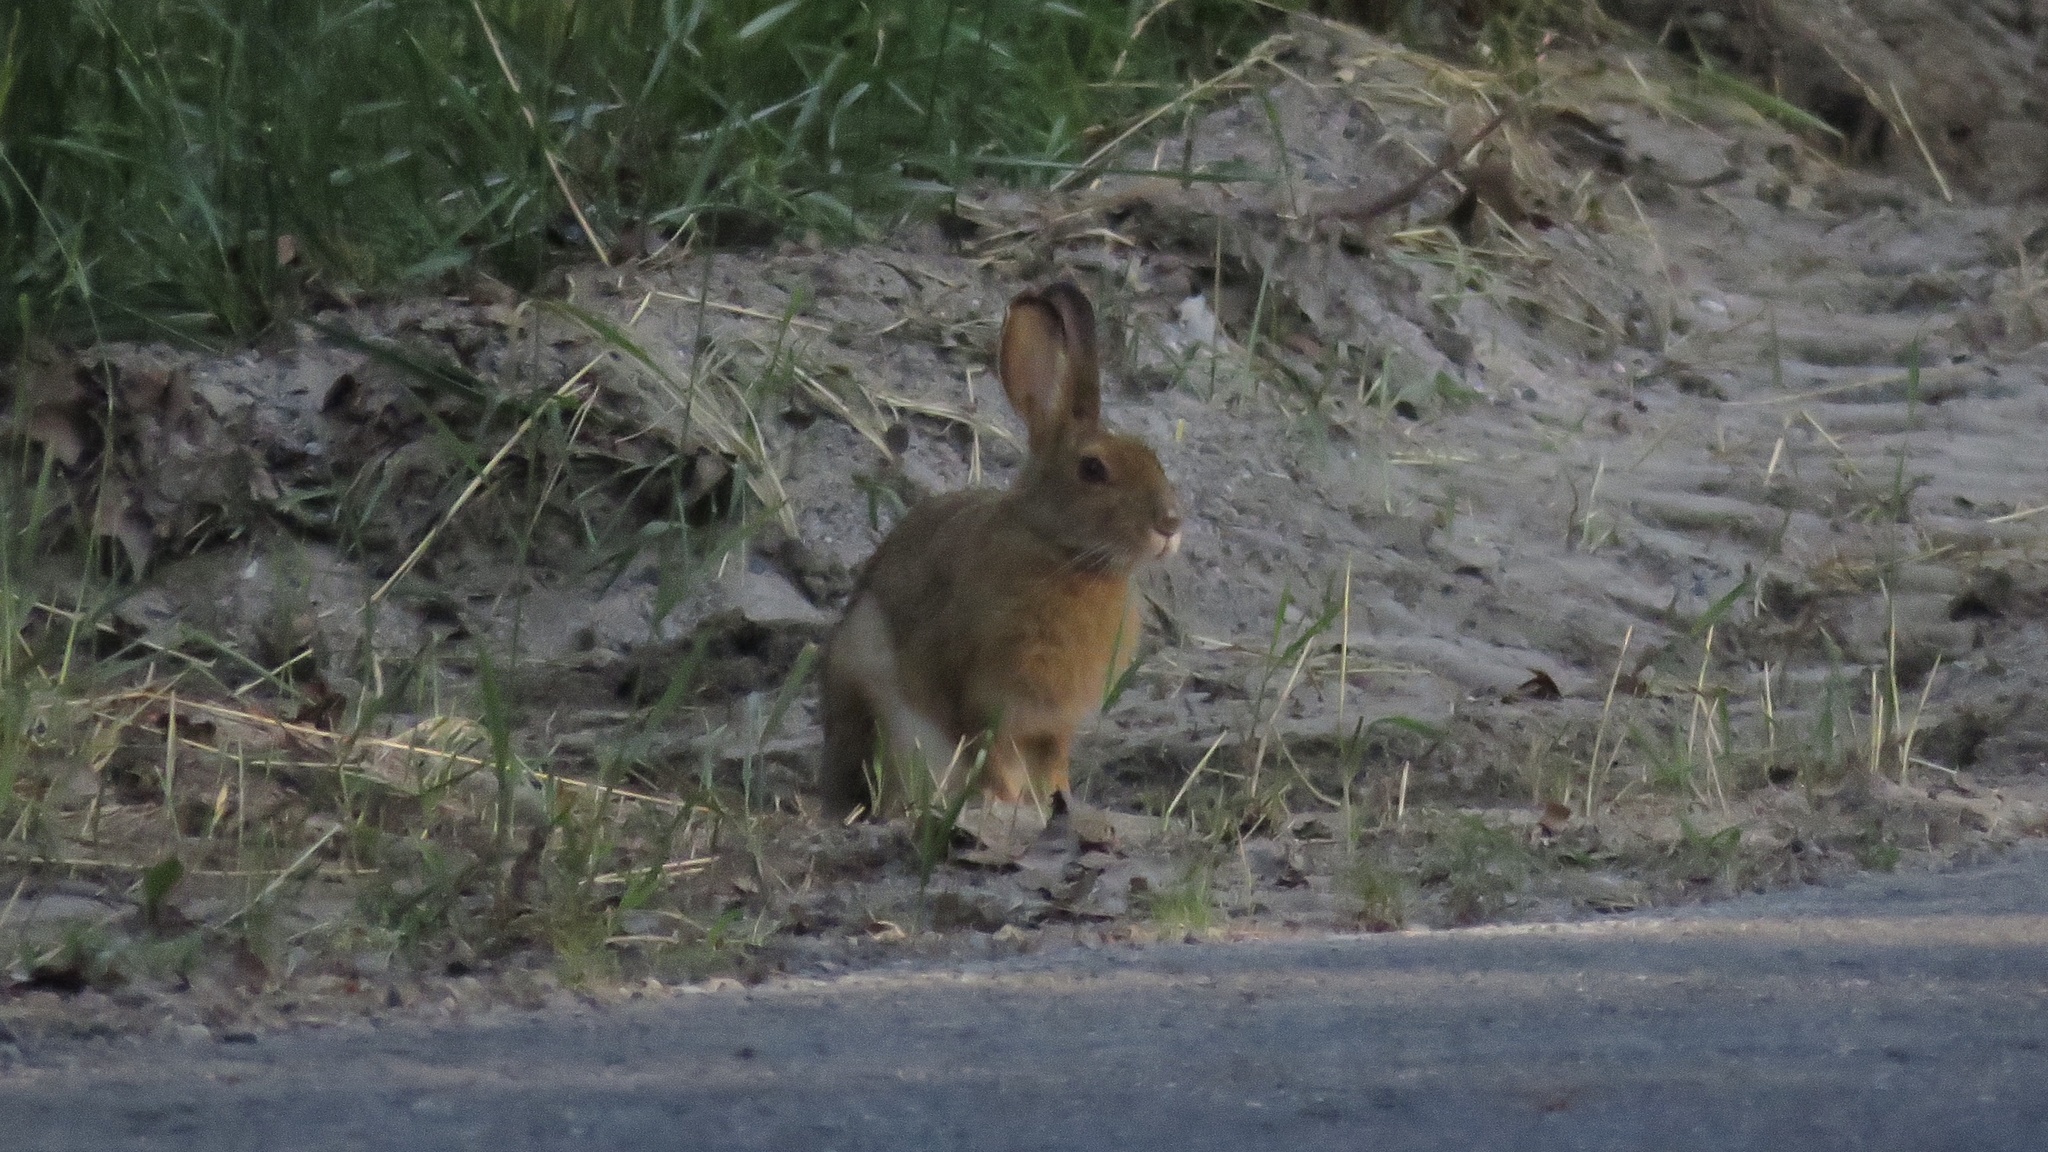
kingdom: Animalia
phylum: Chordata
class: Mammalia
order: Lagomorpha
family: Leporidae
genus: Lepus
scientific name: Lepus americanus
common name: Snowshoe hare
